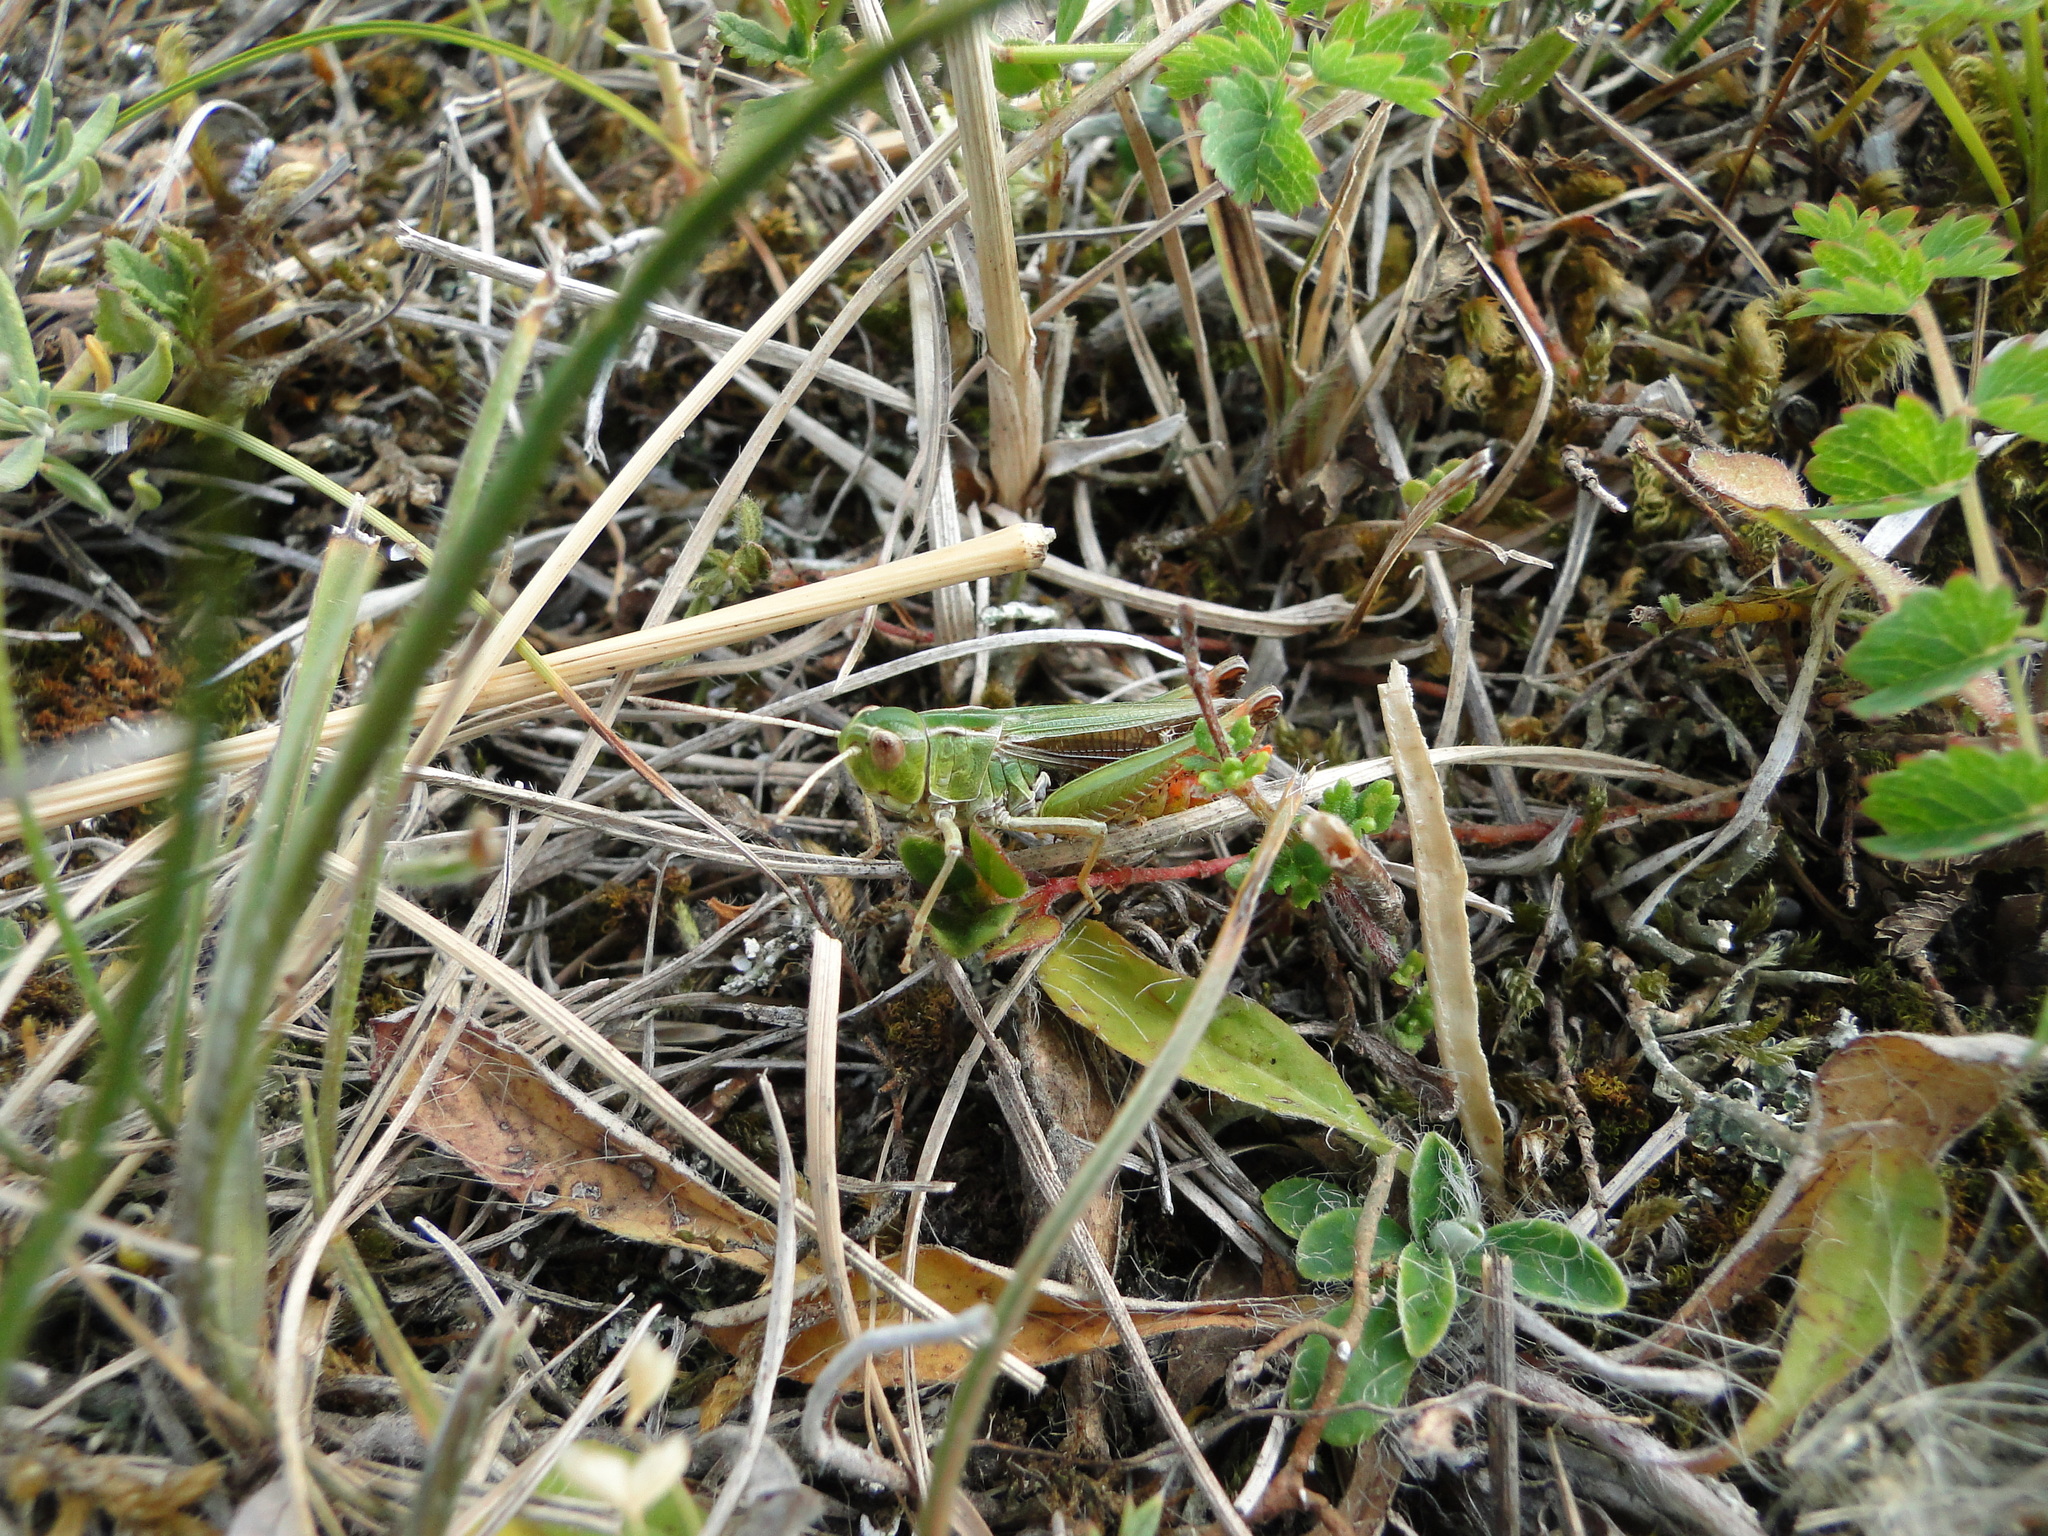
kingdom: Animalia
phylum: Arthropoda
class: Insecta
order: Orthoptera
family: Acrididae
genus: Stenobothrus
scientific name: Stenobothrus lineatus
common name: Stripe-winged grasshopper
